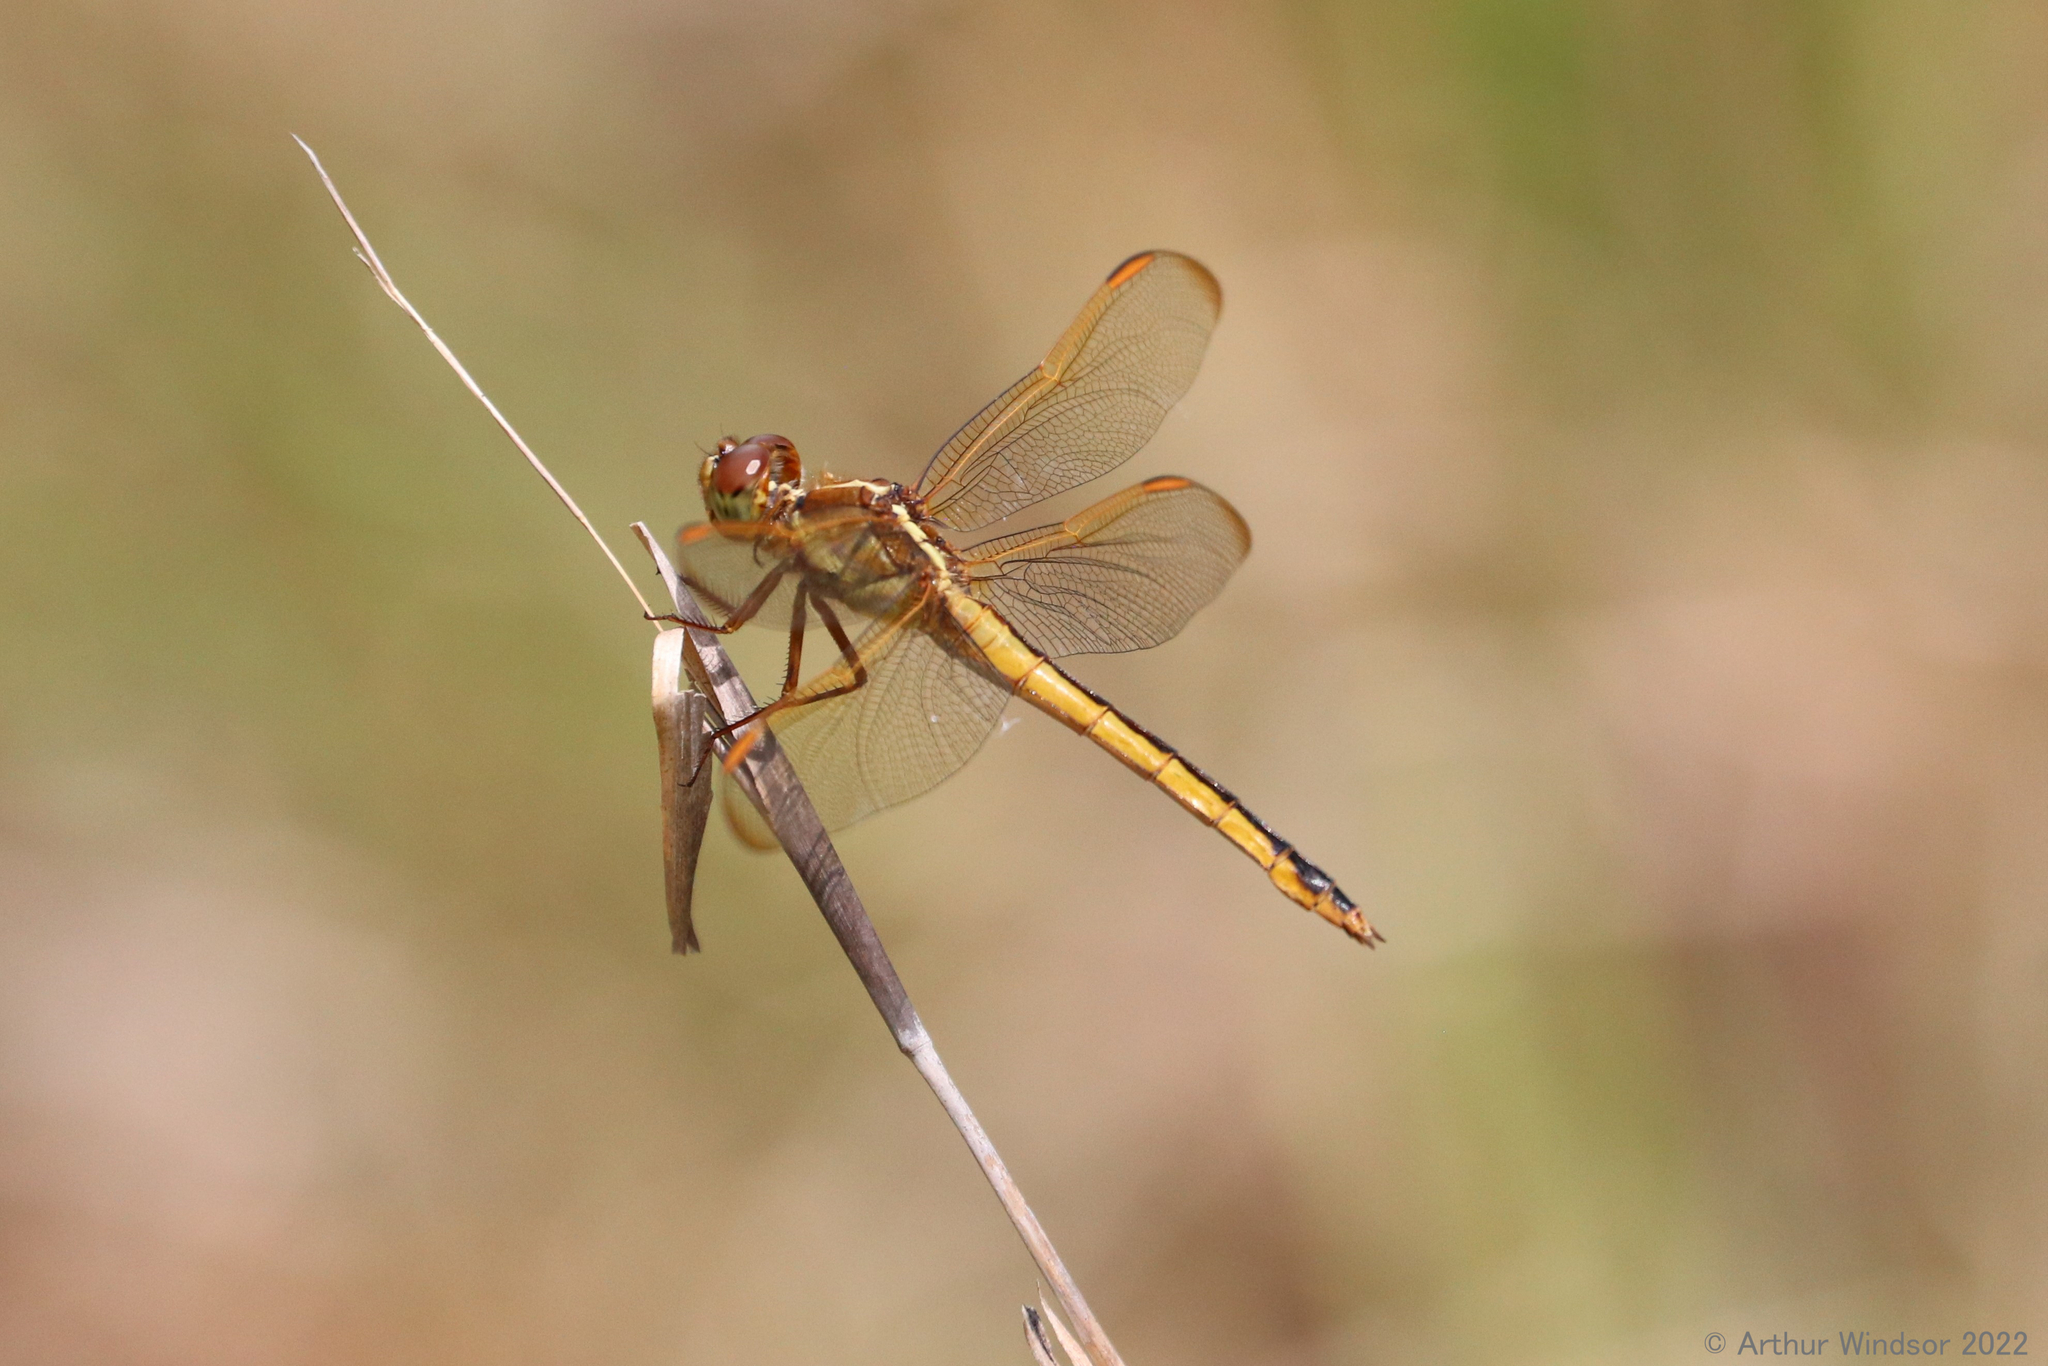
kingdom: Animalia
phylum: Arthropoda
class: Insecta
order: Odonata
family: Libellulidae
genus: Libellula
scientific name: Libellula needhami
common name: Needham's skimmer
